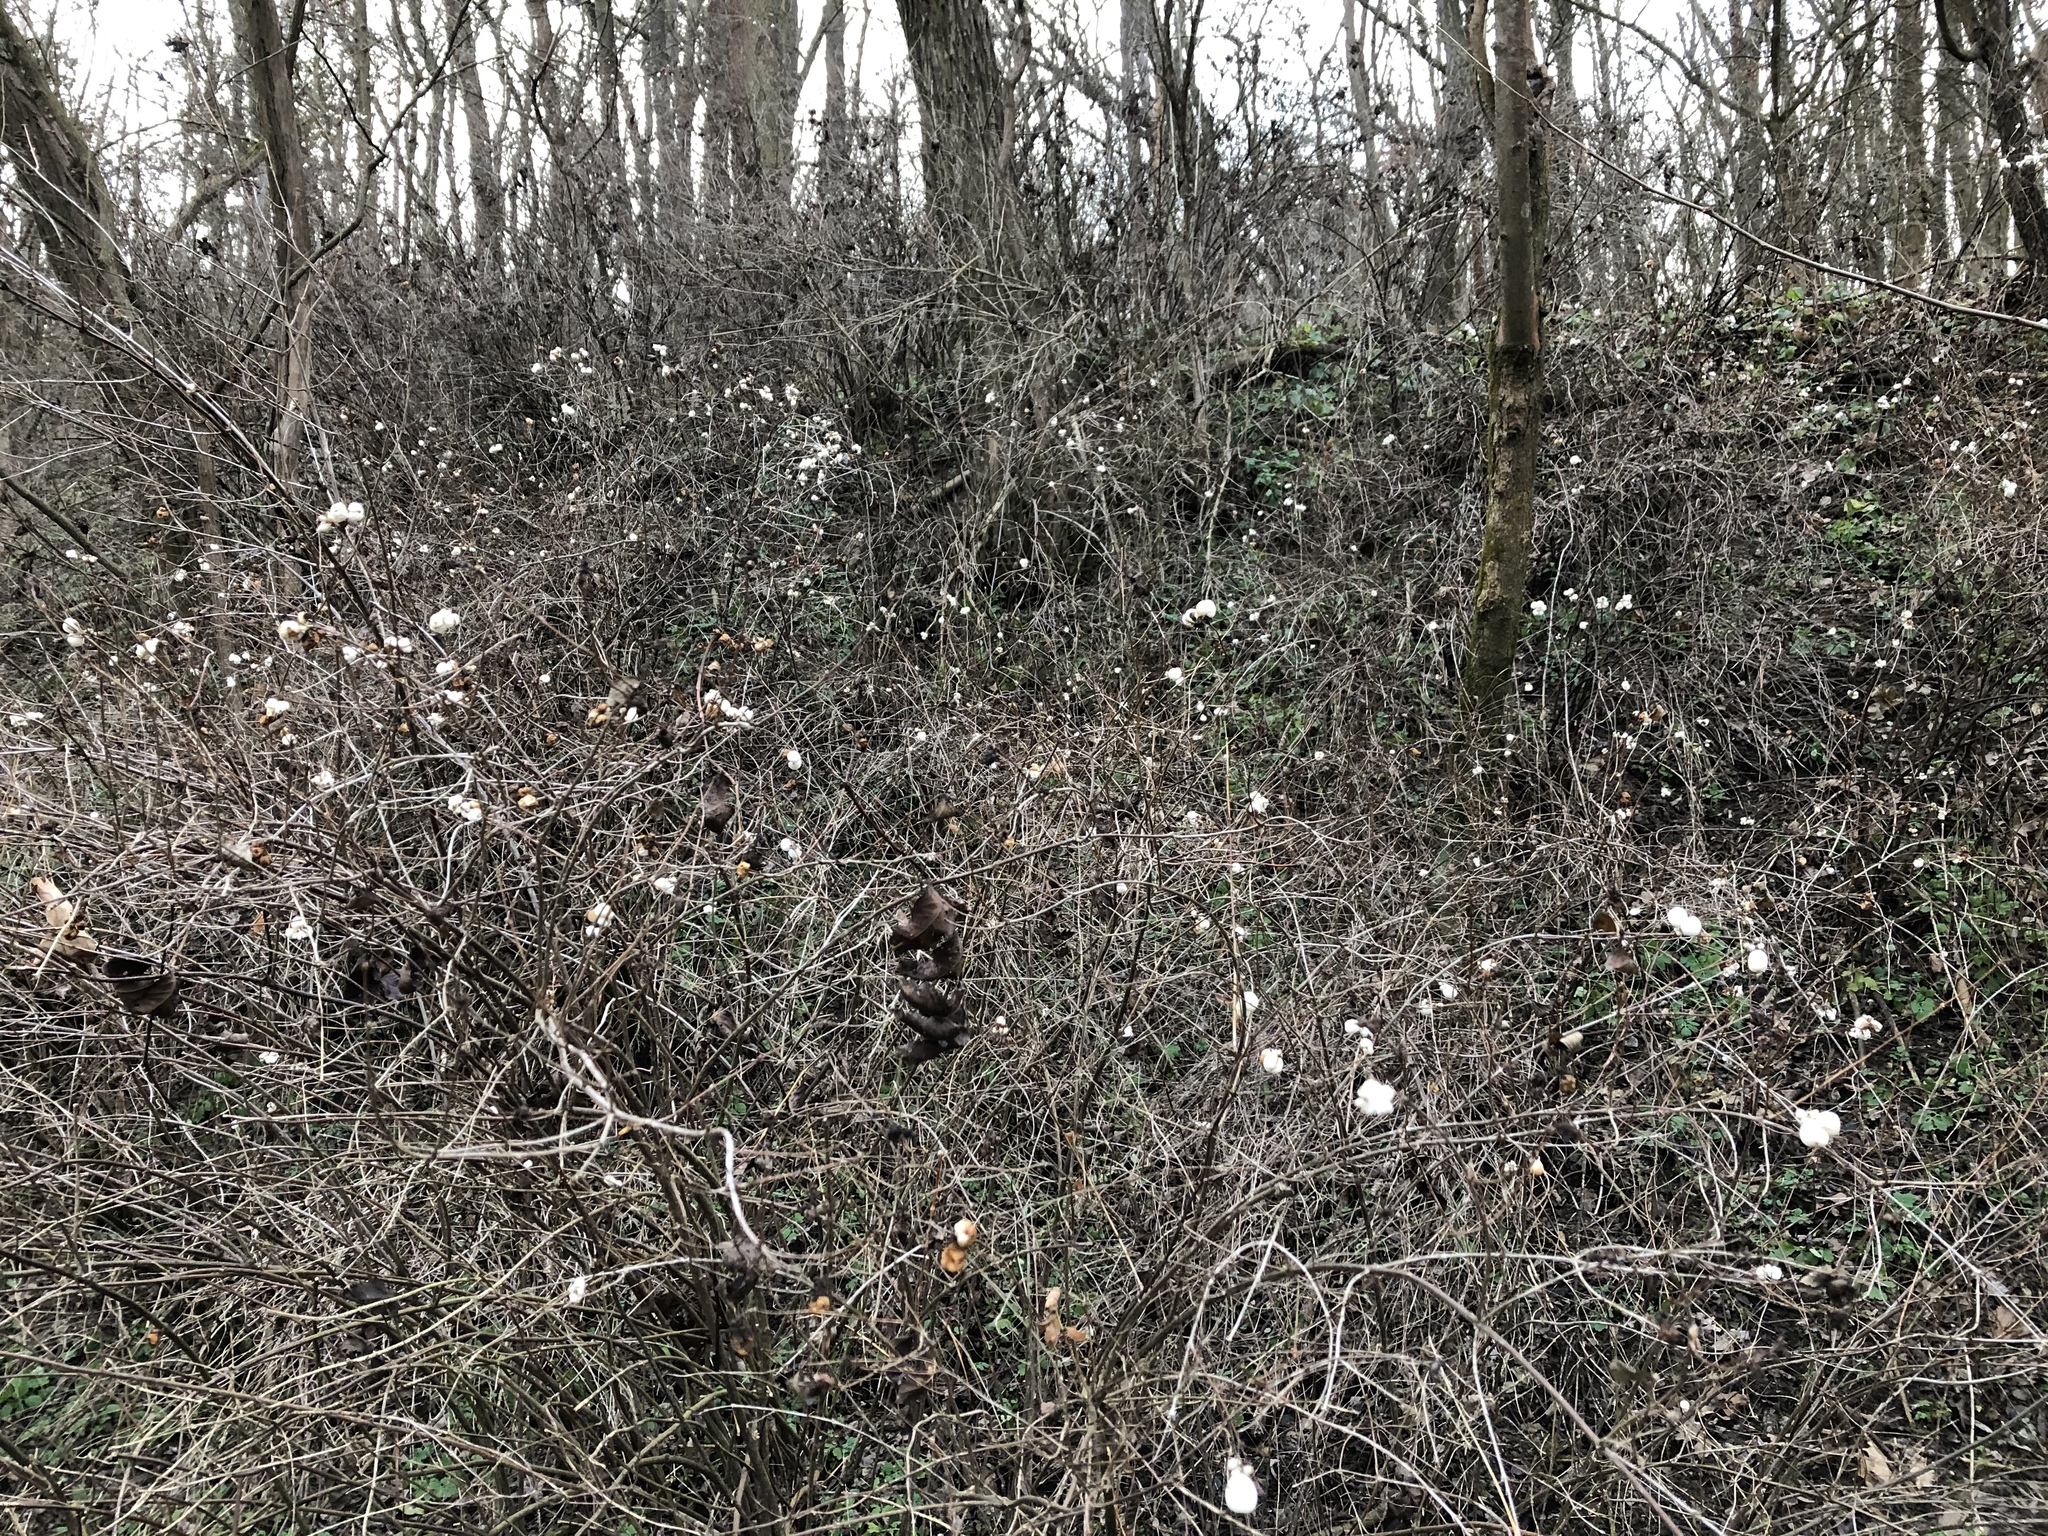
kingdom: Plantae
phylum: Tracheophyta
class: Magnoliopsida
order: Dipsacales
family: Caprifoliaceae
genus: Symphoricarpos
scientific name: Symphoricarpos albus
